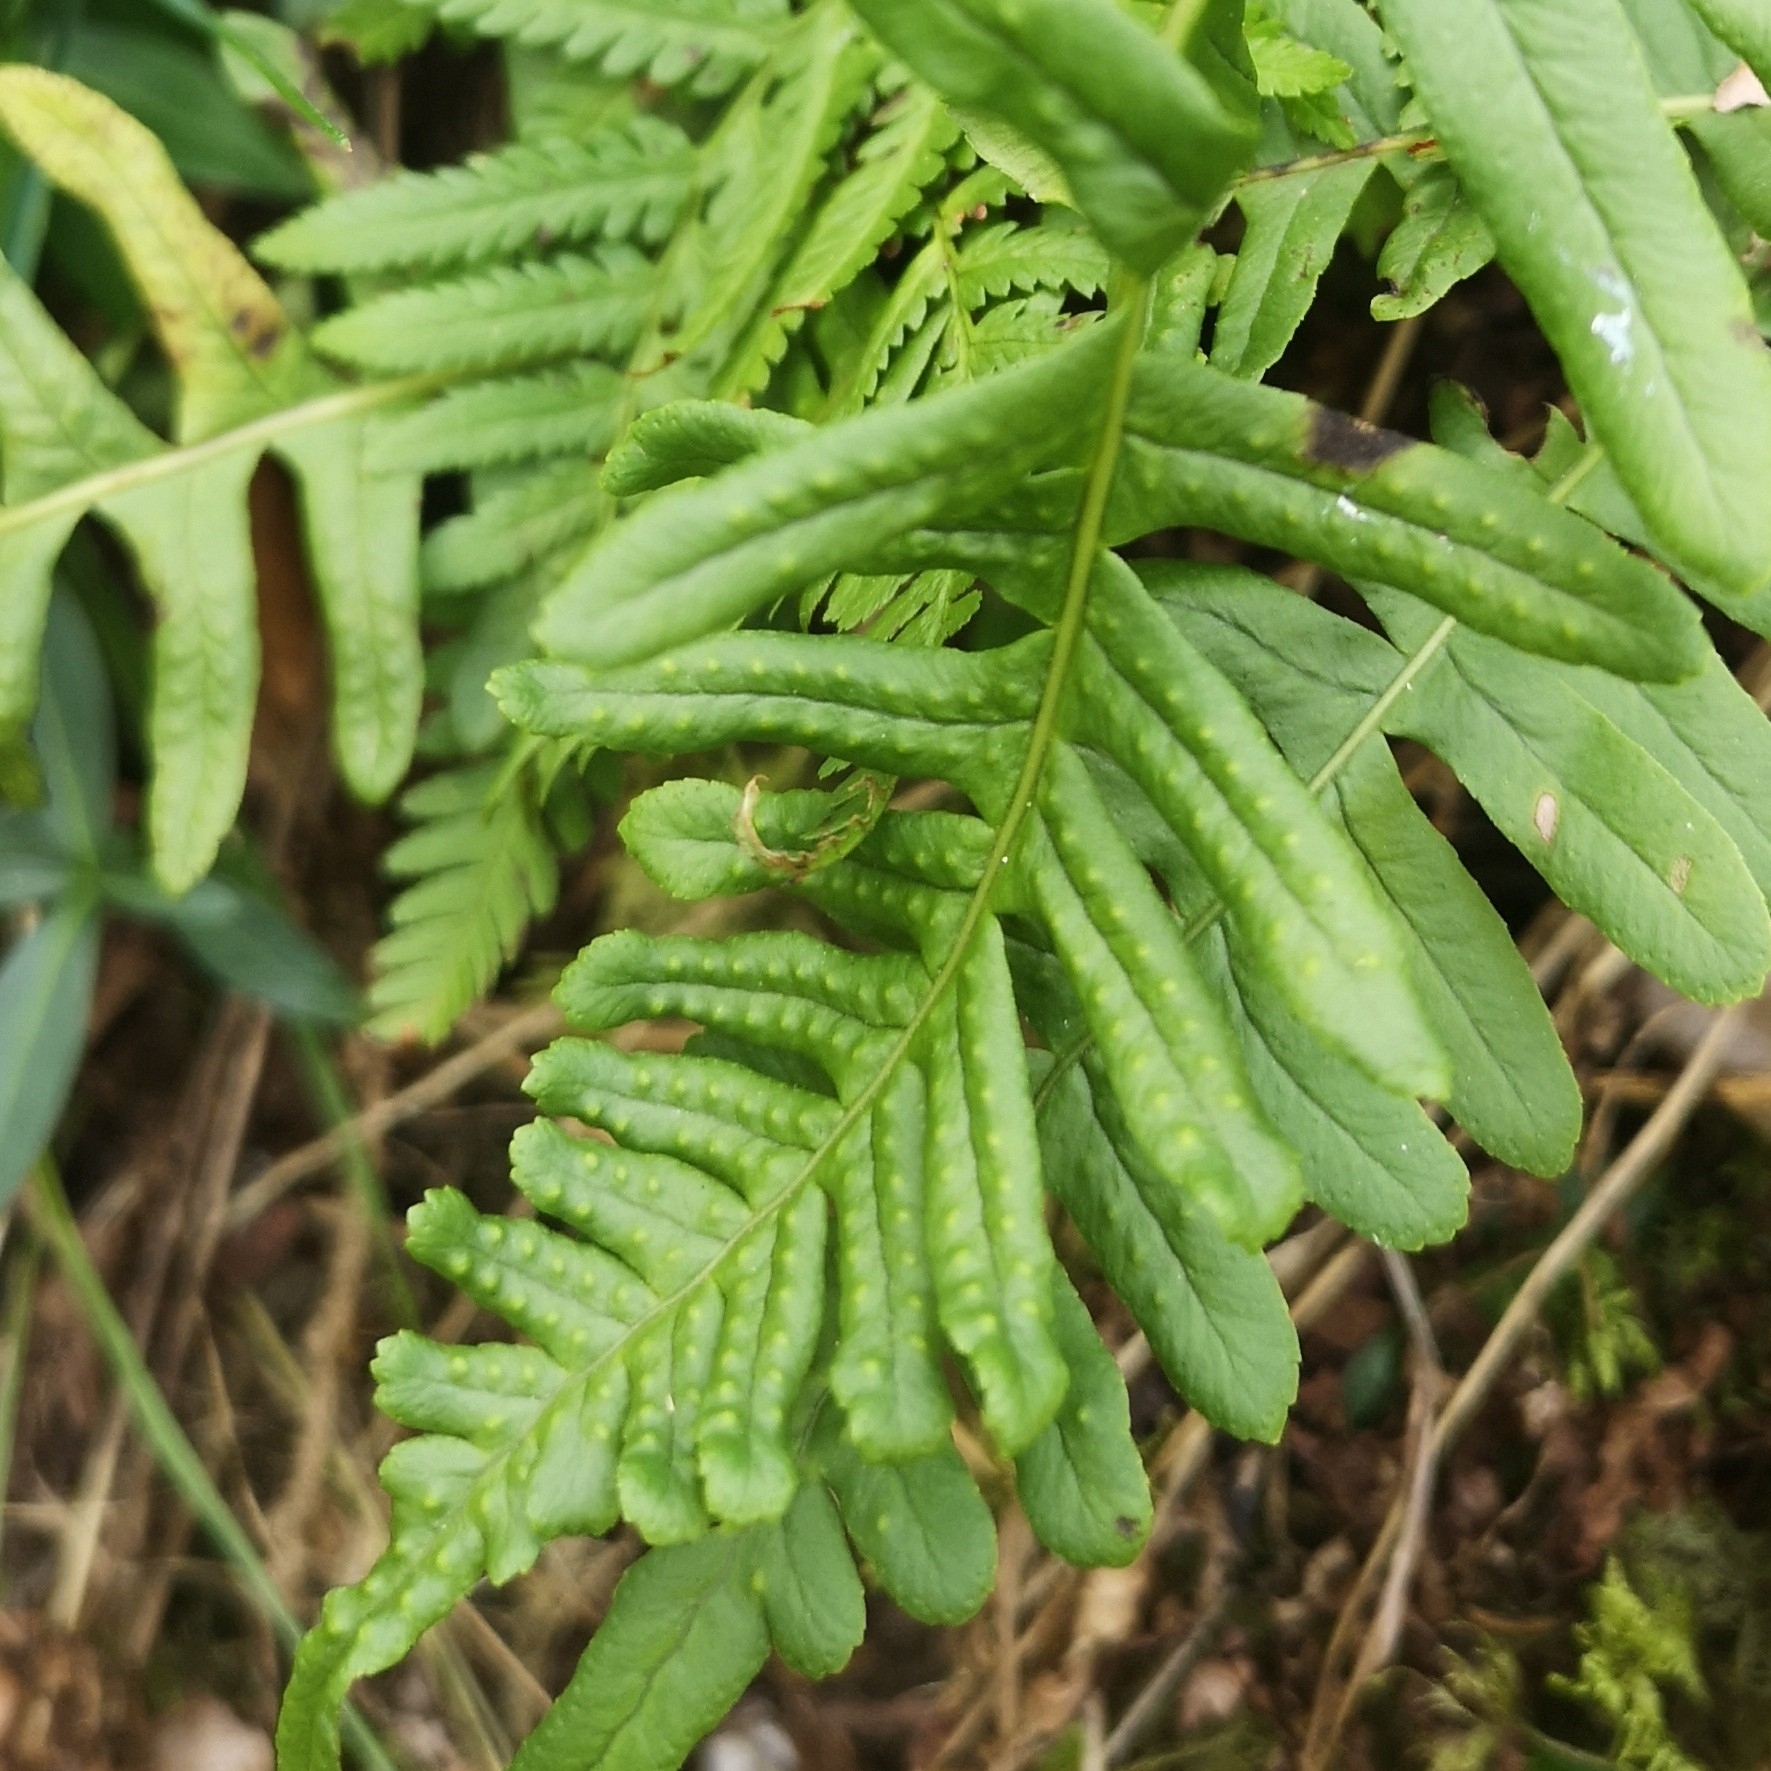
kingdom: Plantae
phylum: Tracheophyta
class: Polypodiopsida
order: Polypodiales
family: Polypodiaceae
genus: Polypodium
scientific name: Polypodium vulgare
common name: Common polypody
